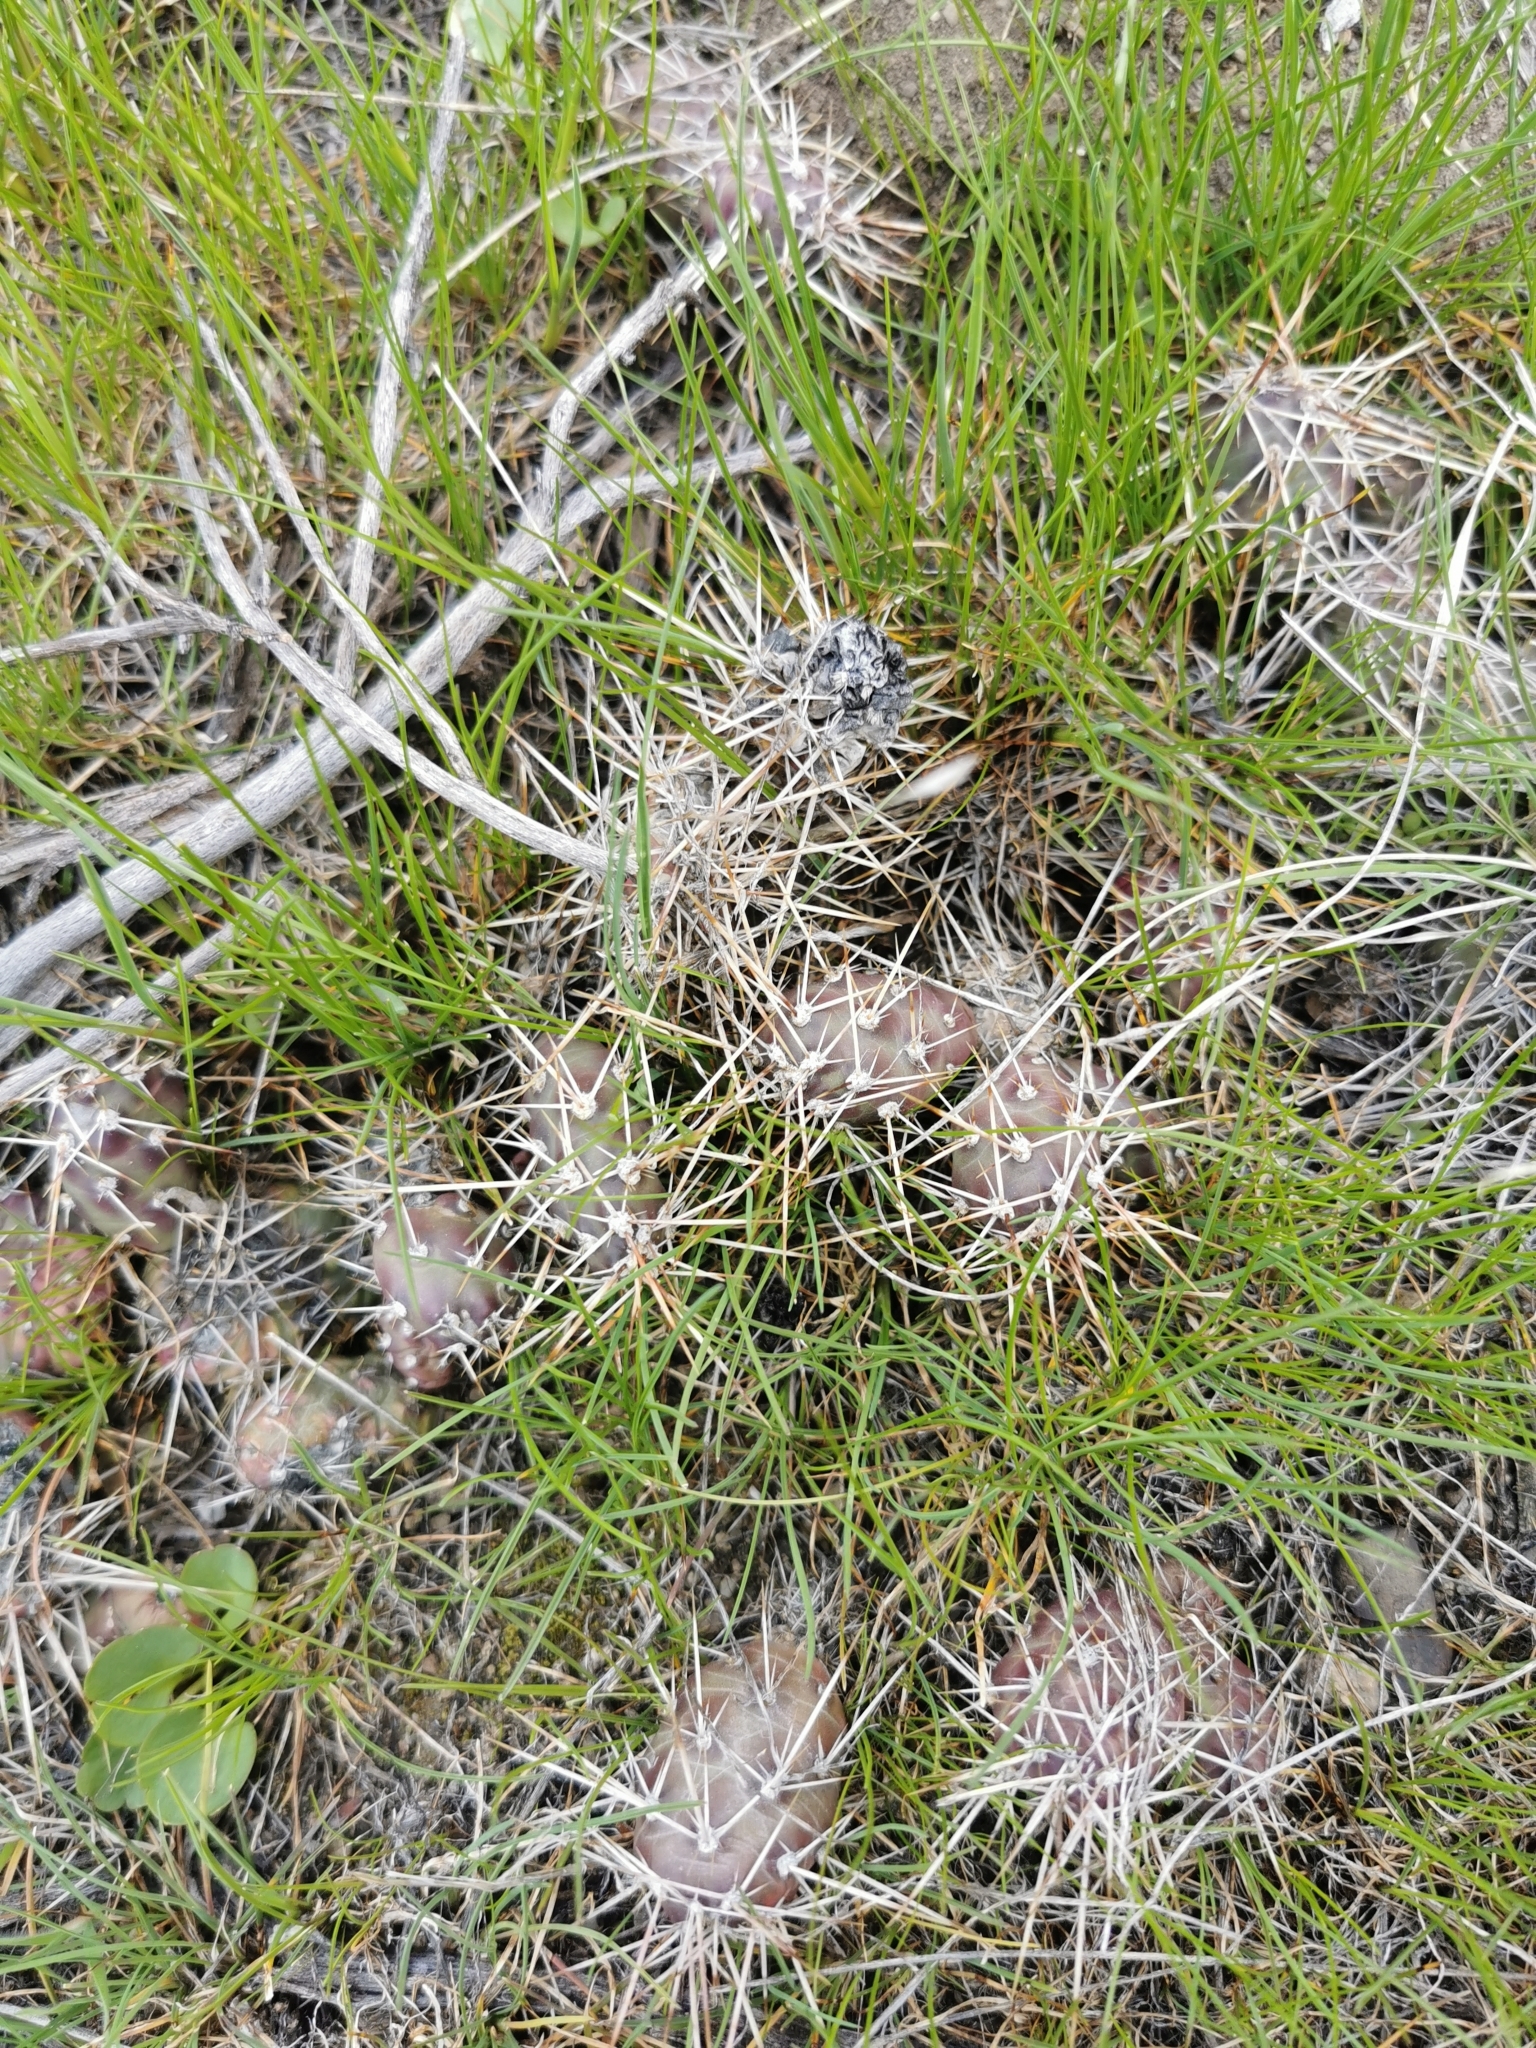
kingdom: Plantae
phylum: Tracheophyta
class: Magnoliopsida
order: Caryophyllales
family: Cactaceae
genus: Opuntia
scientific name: Opuntia fragilis
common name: Brittle cactus
